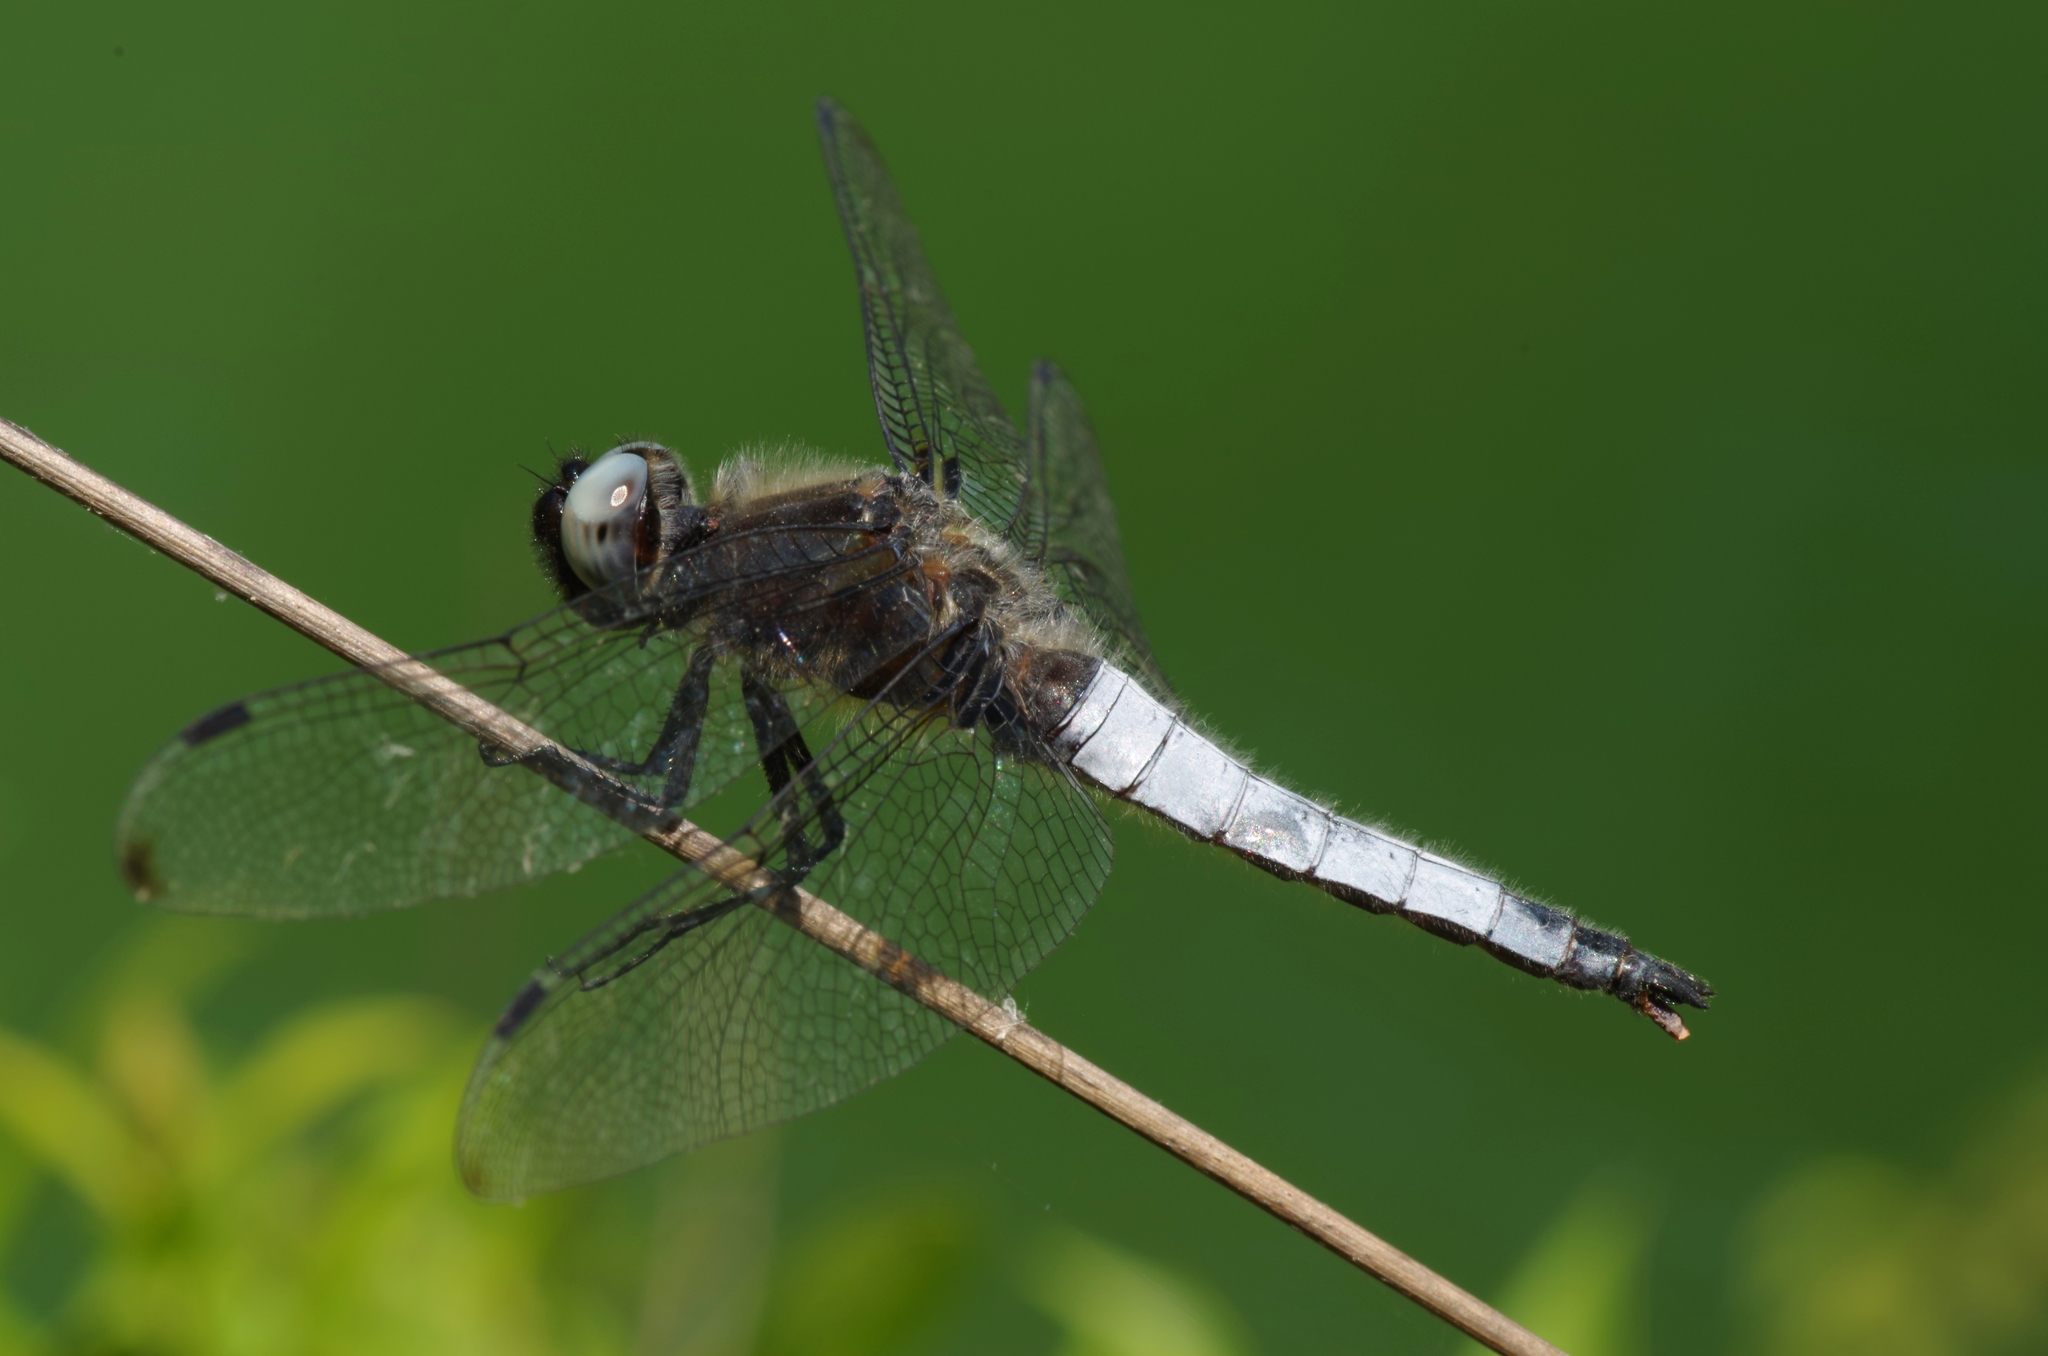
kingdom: Animalia
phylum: Arthropoda
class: Insecta
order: Odonata
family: Libellulidae
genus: Libellula
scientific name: Libellula fulva
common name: Blue chaser
